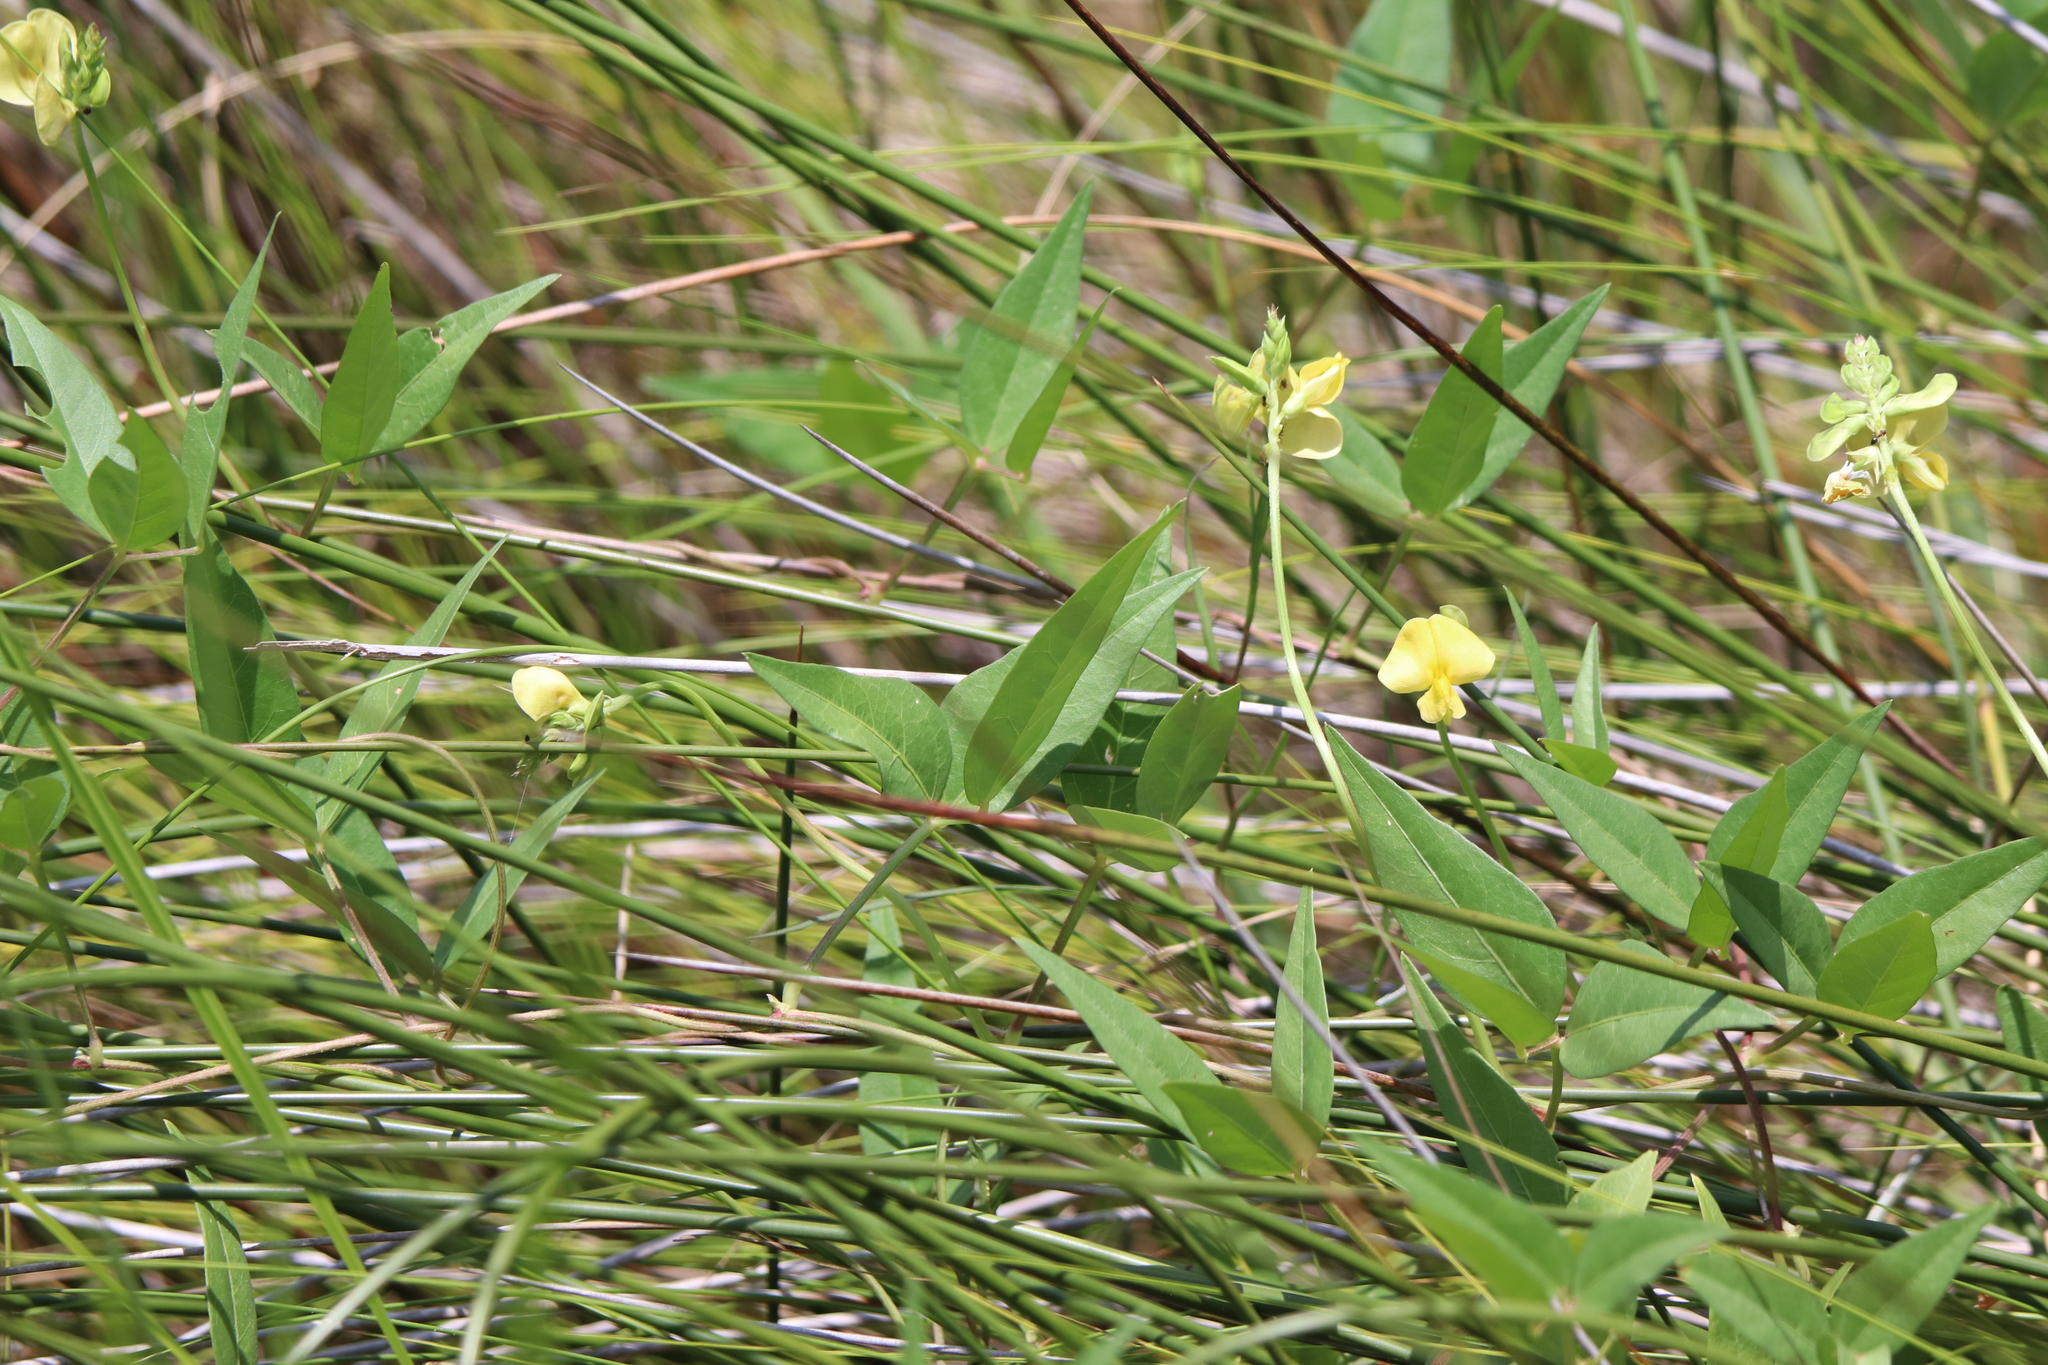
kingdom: Plantae
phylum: Tracheophyta
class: Magnoliopsida
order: Fabales
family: Fabaceae
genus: Vigna
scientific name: Vigna luteola
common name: Hairypod cowpea
